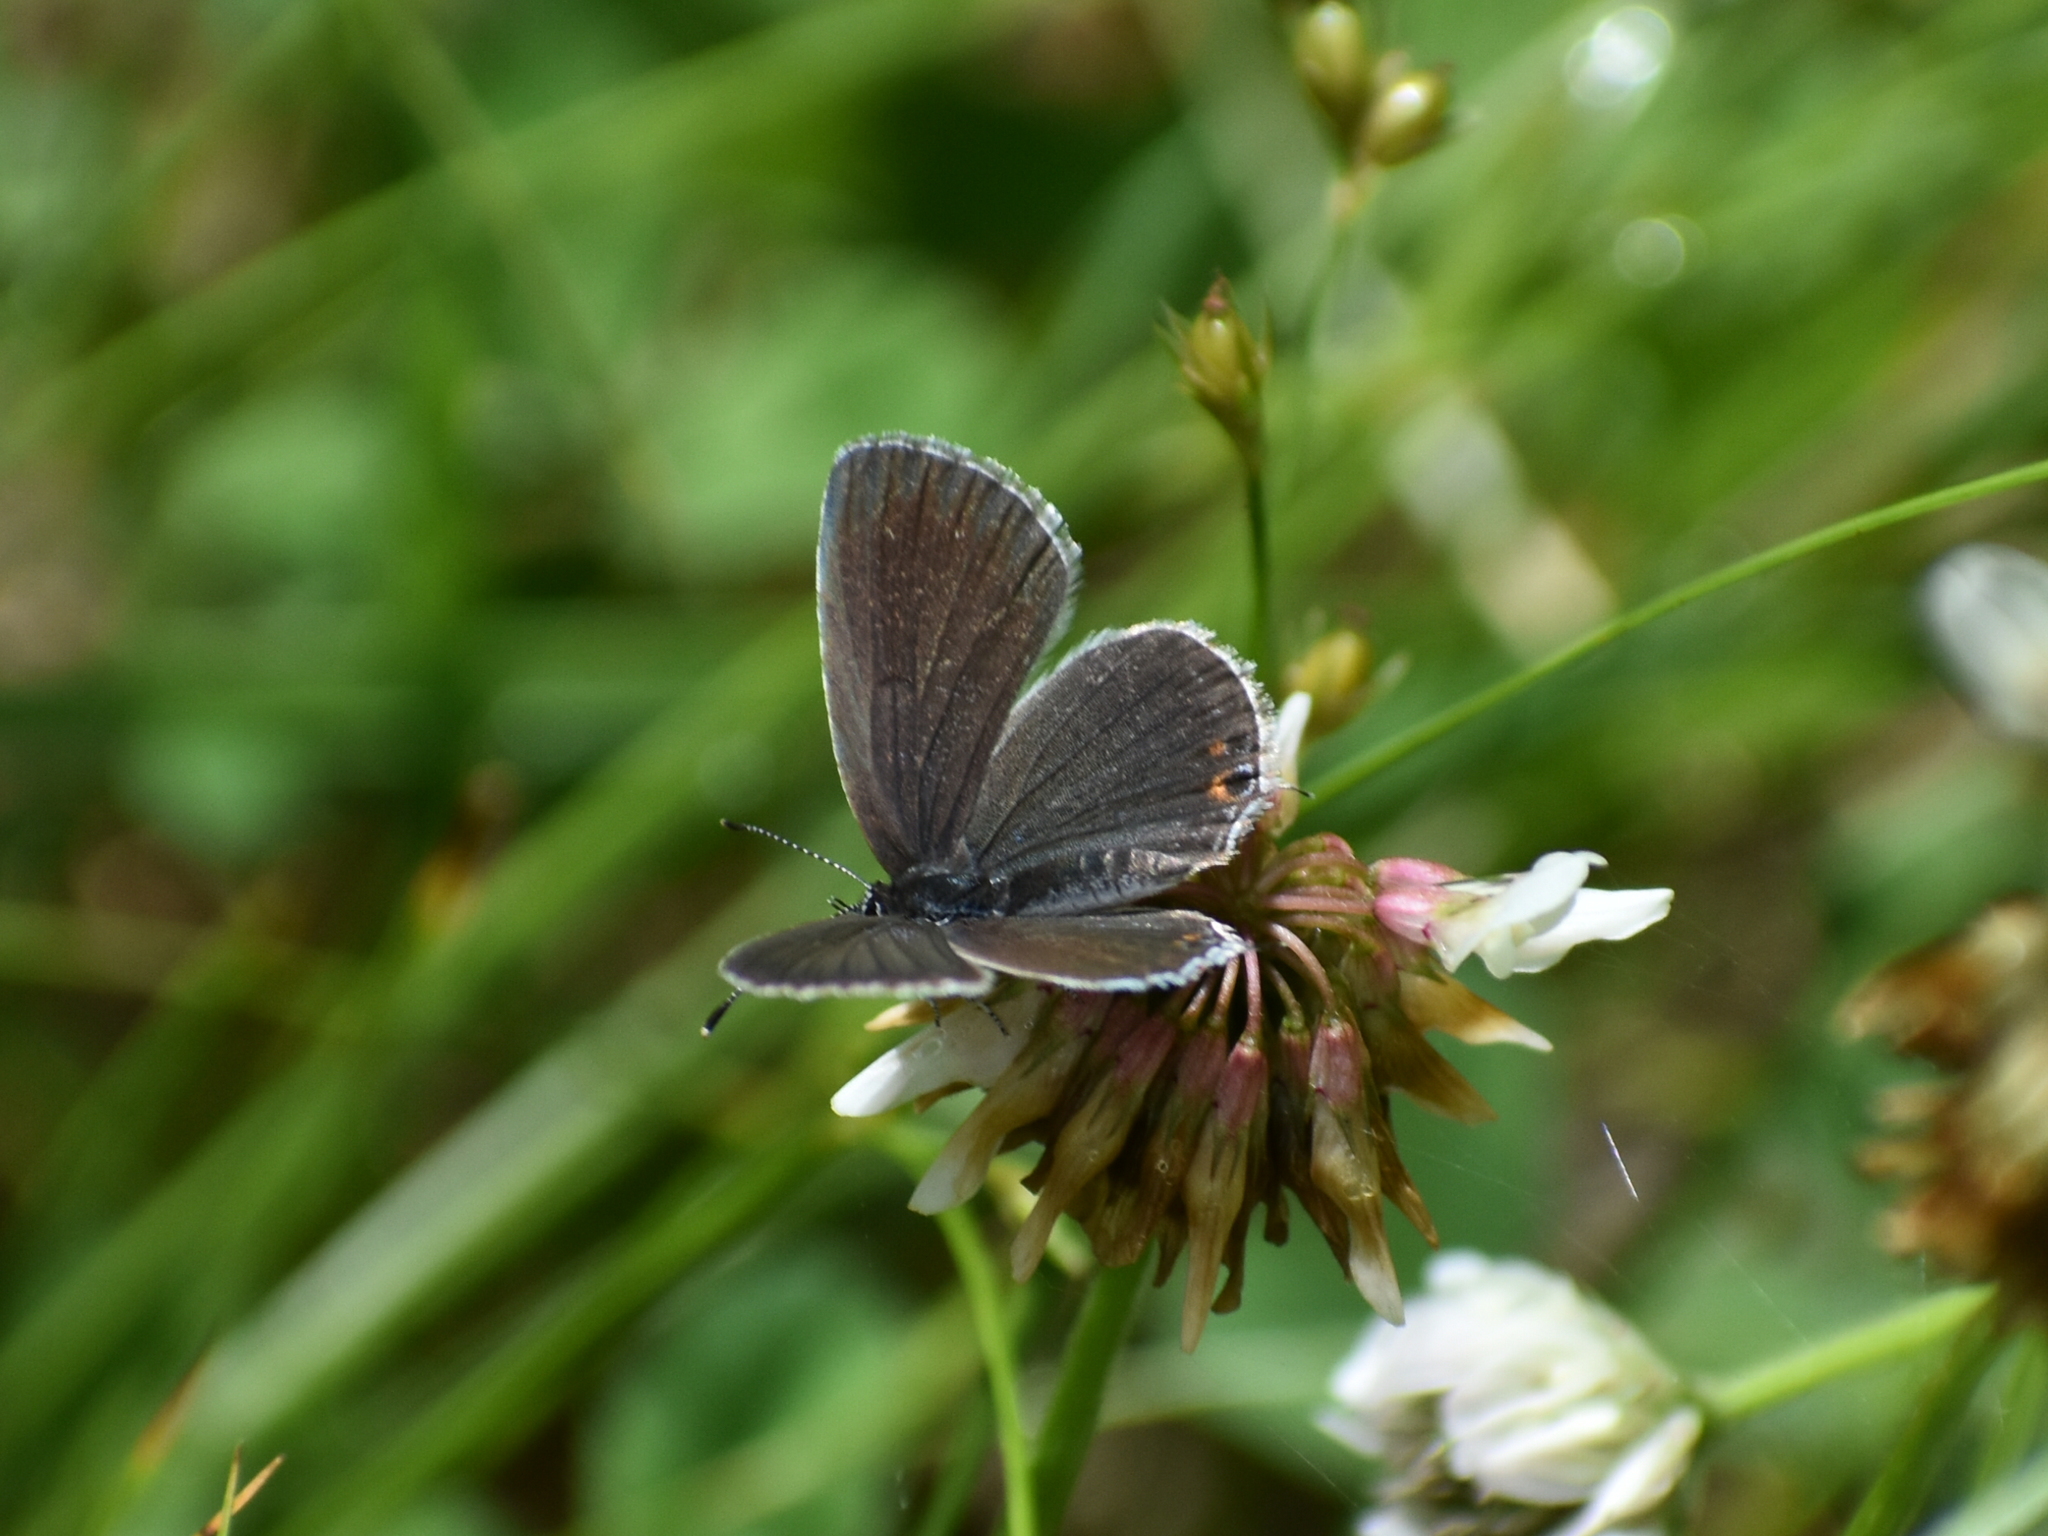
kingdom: Animalia
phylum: Arthropoda
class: Insecta
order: Lepidoptera
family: Lycaenidae
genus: Elkalyce
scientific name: Elkalyce comyntas
